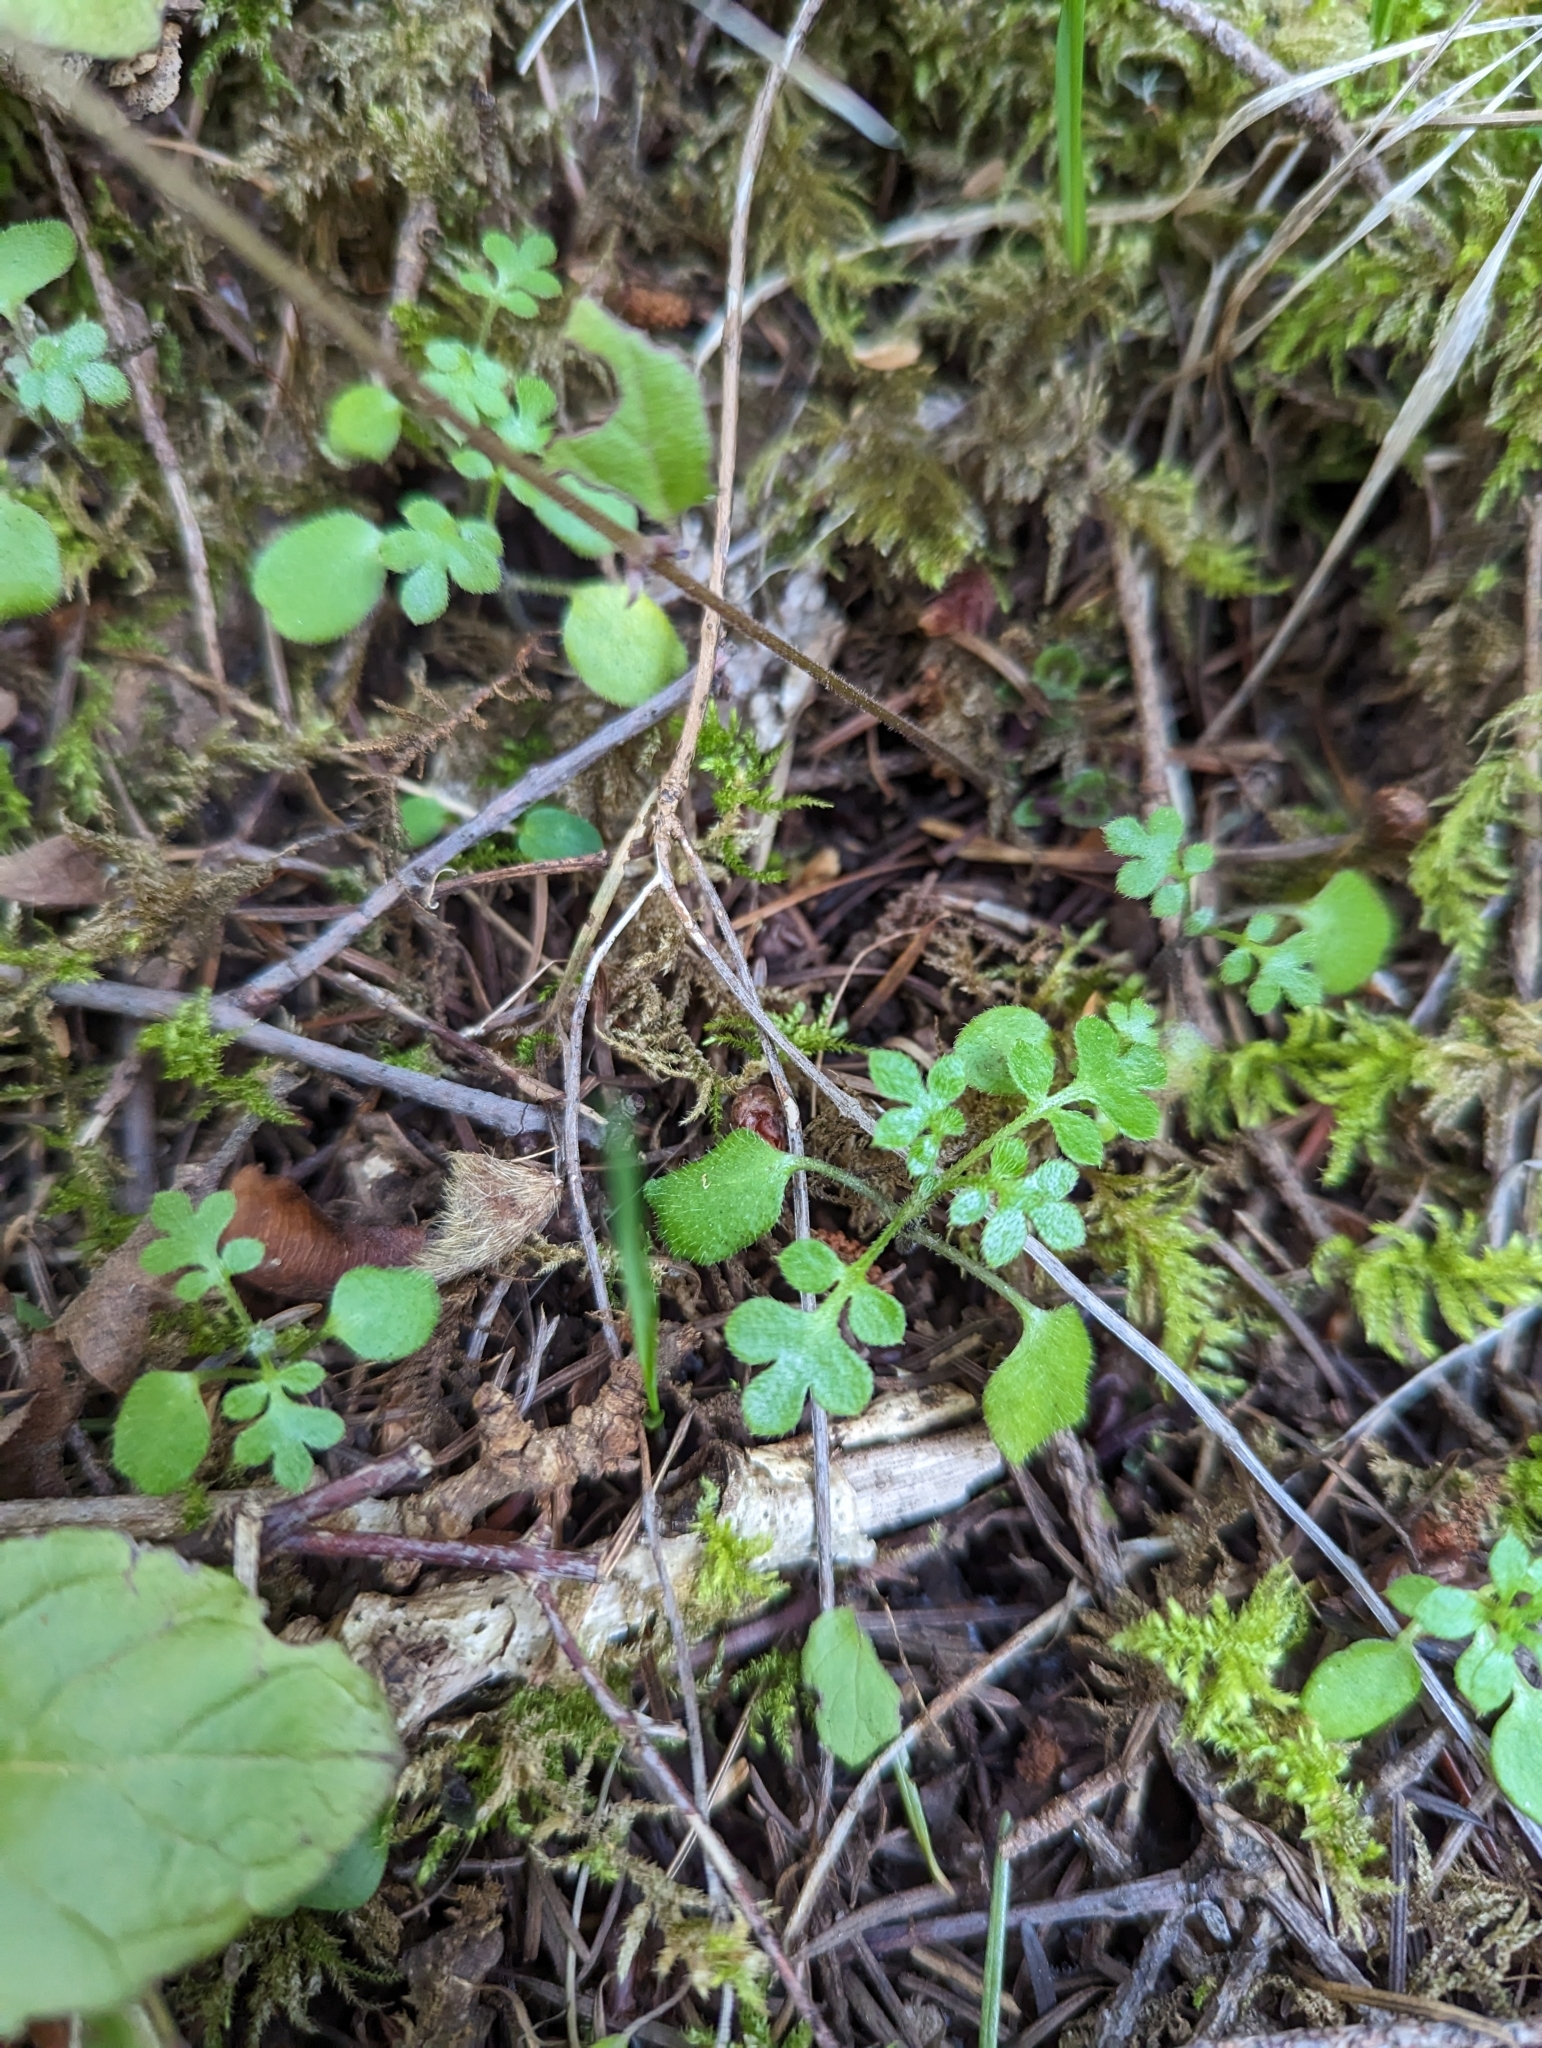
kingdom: Plantae
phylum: Tracheophyta
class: Magnoliopsida
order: Boraginales
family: Hydrophyllaceae
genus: Nemophila
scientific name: Nemophila parviflora
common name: Small-flowered baby-blue-eyes
